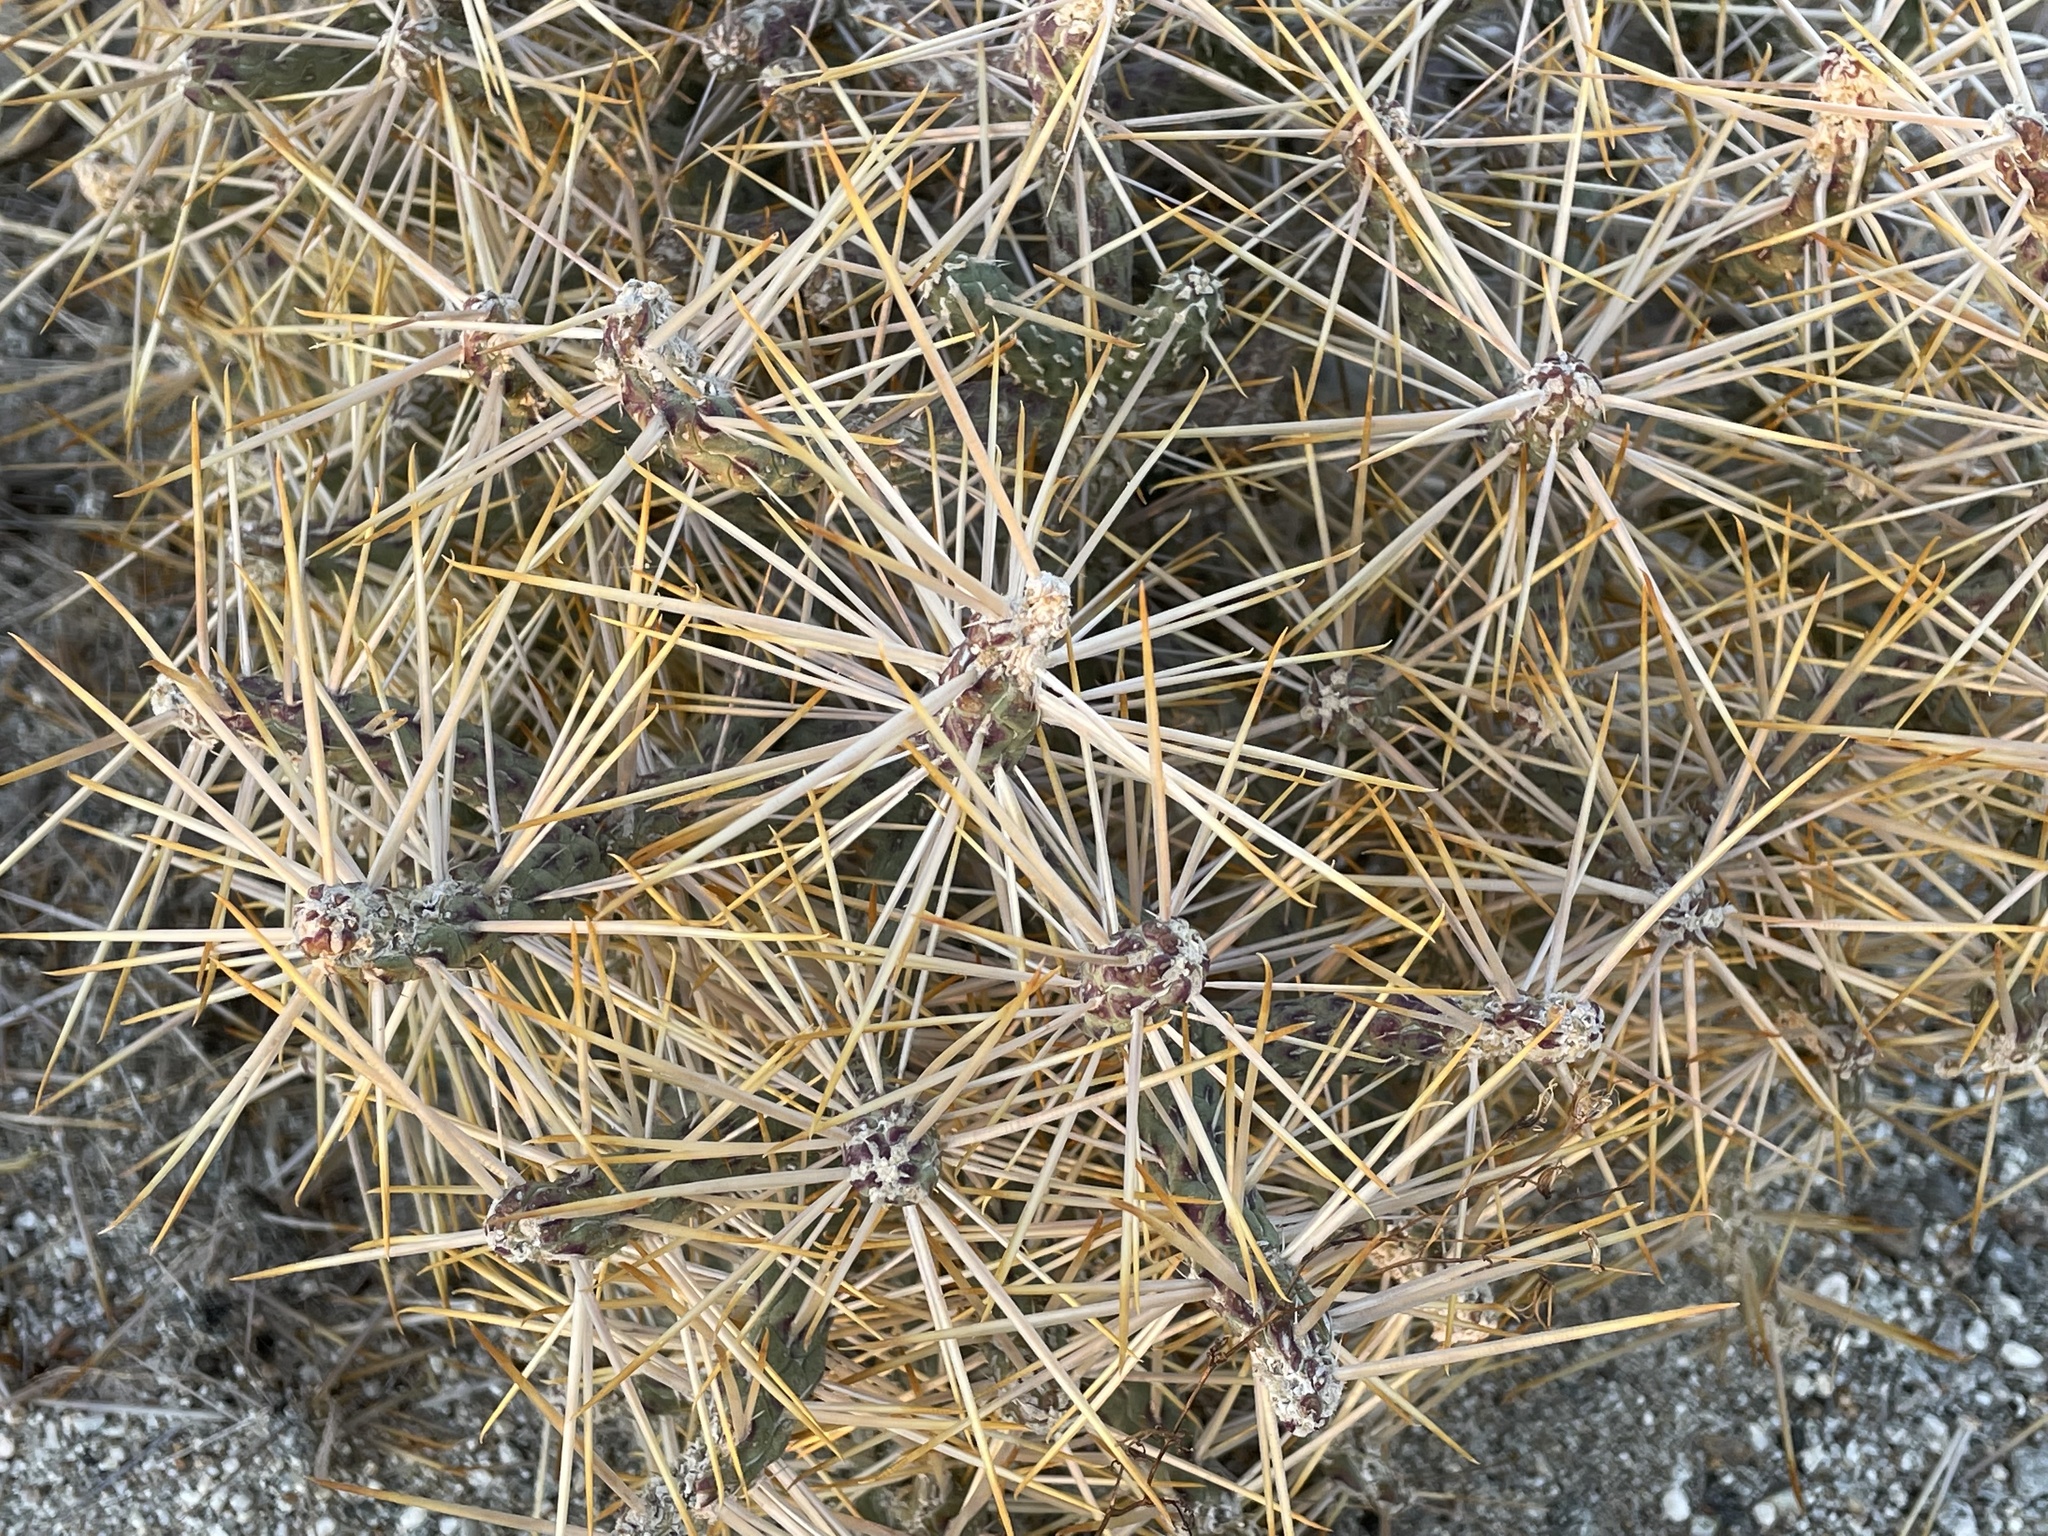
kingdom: Plantae
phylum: Tracheophyta
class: Magnoliopsida
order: Caryophyllales
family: Cactaceae
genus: Cylindropuntia
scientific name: Cylindropuntia ramosissima
